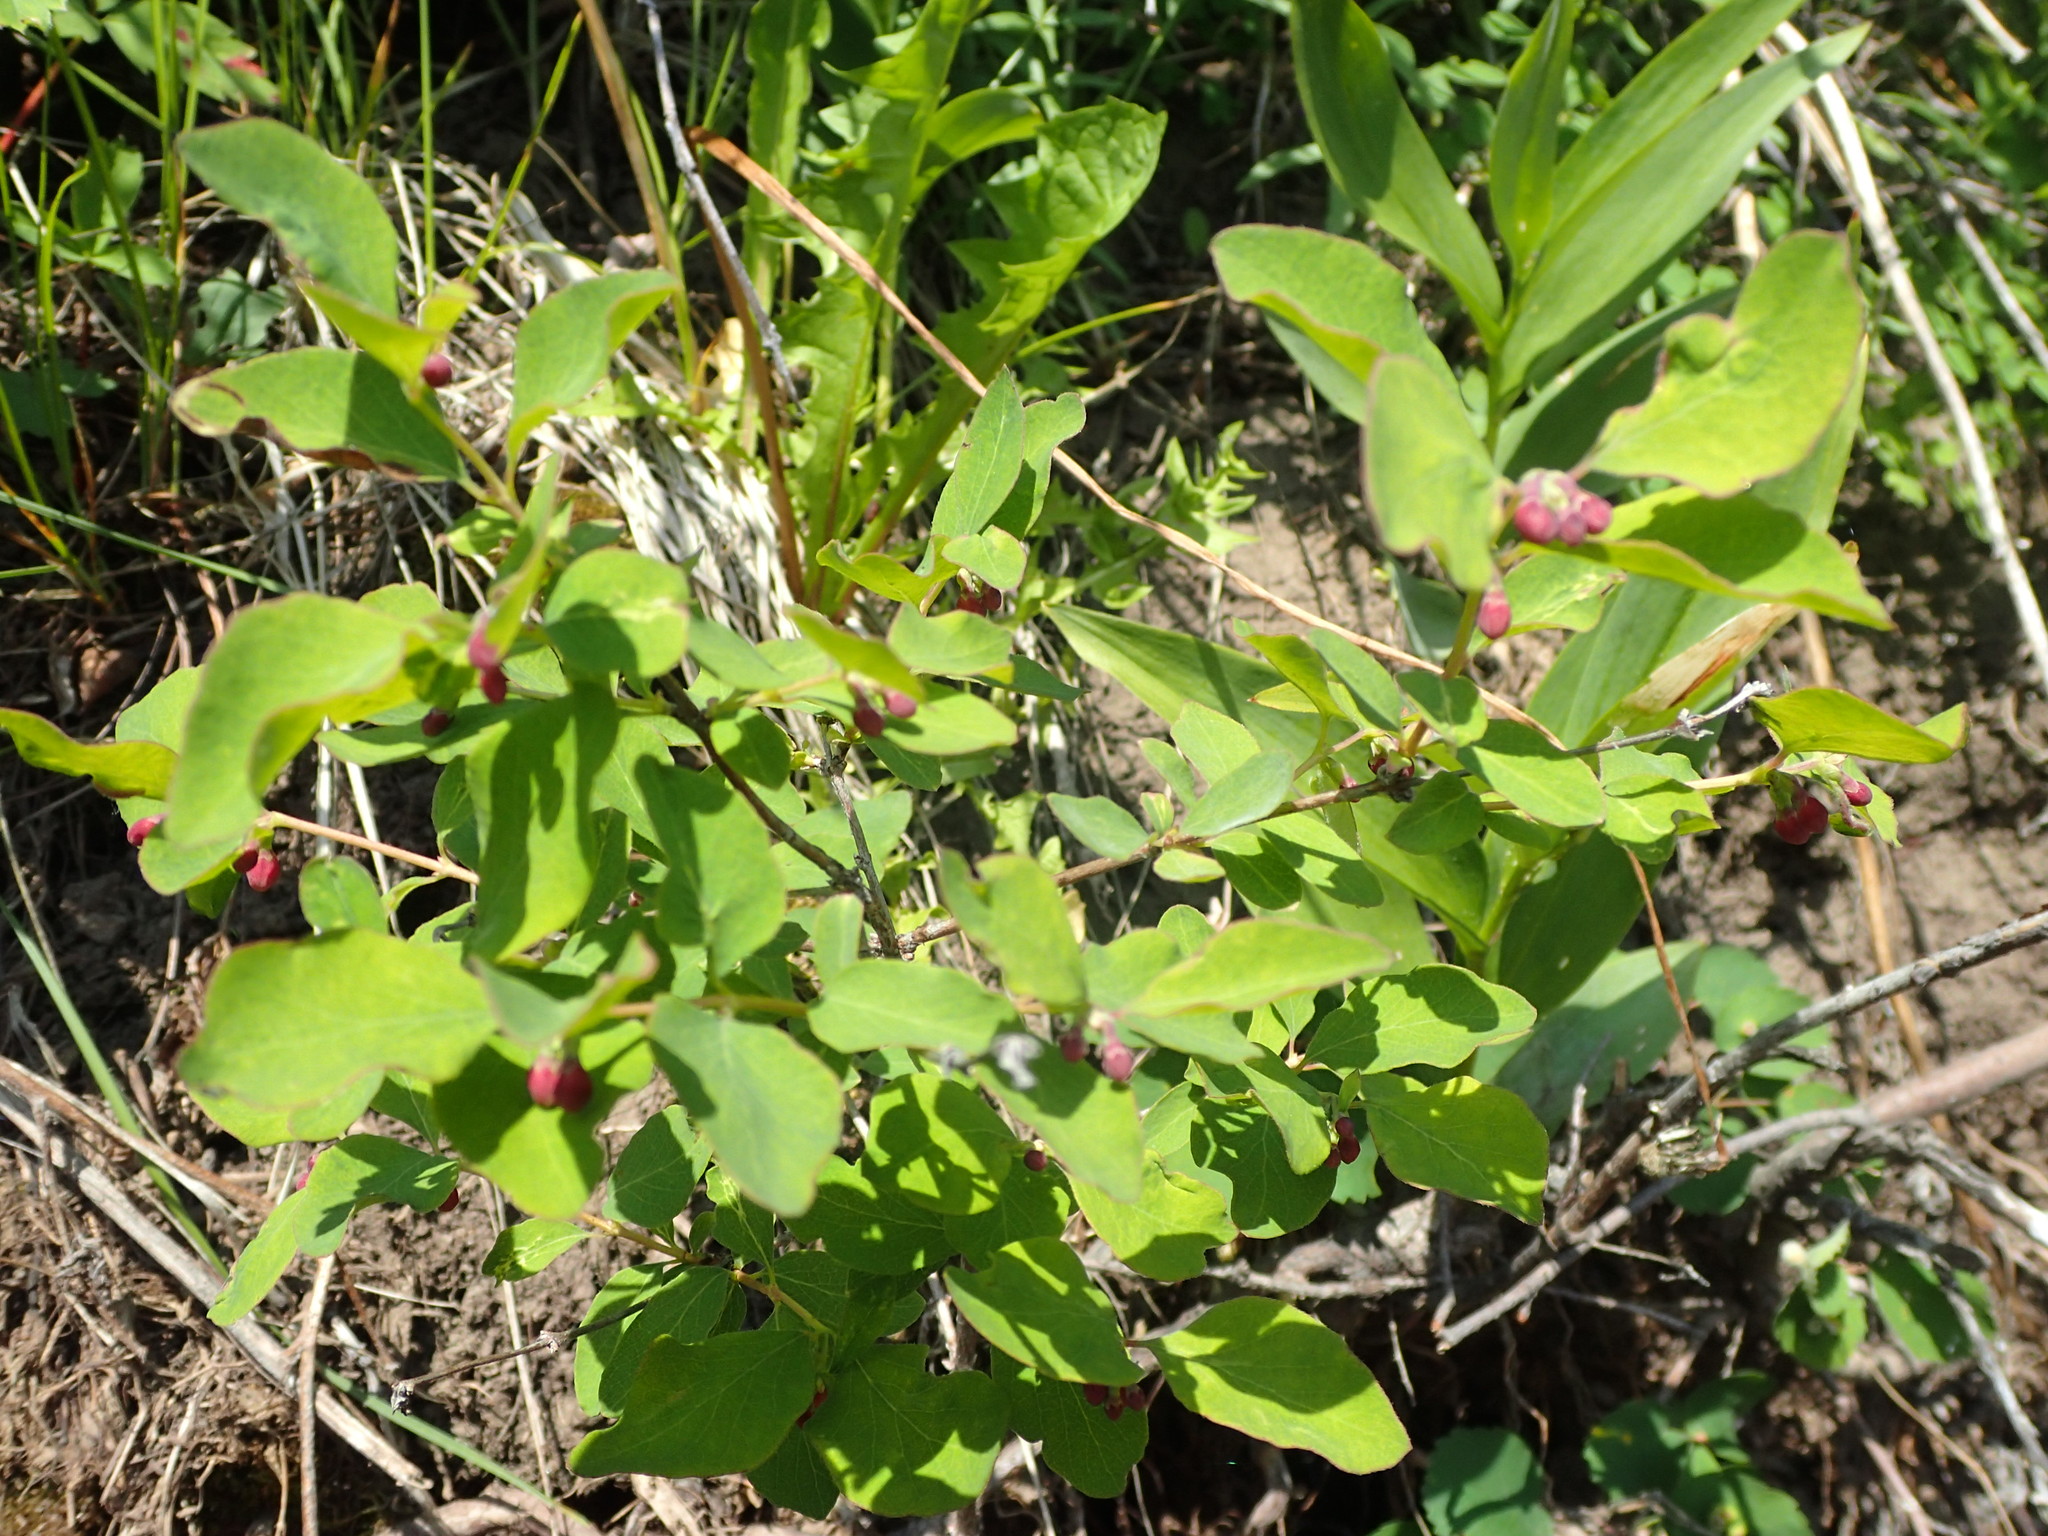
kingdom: Plantae
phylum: Tracheophyta
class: Magnoliopsida
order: Dipsacales
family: Caprifoliaceae
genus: Symphoricarpos
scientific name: Symphoricarpos albus
